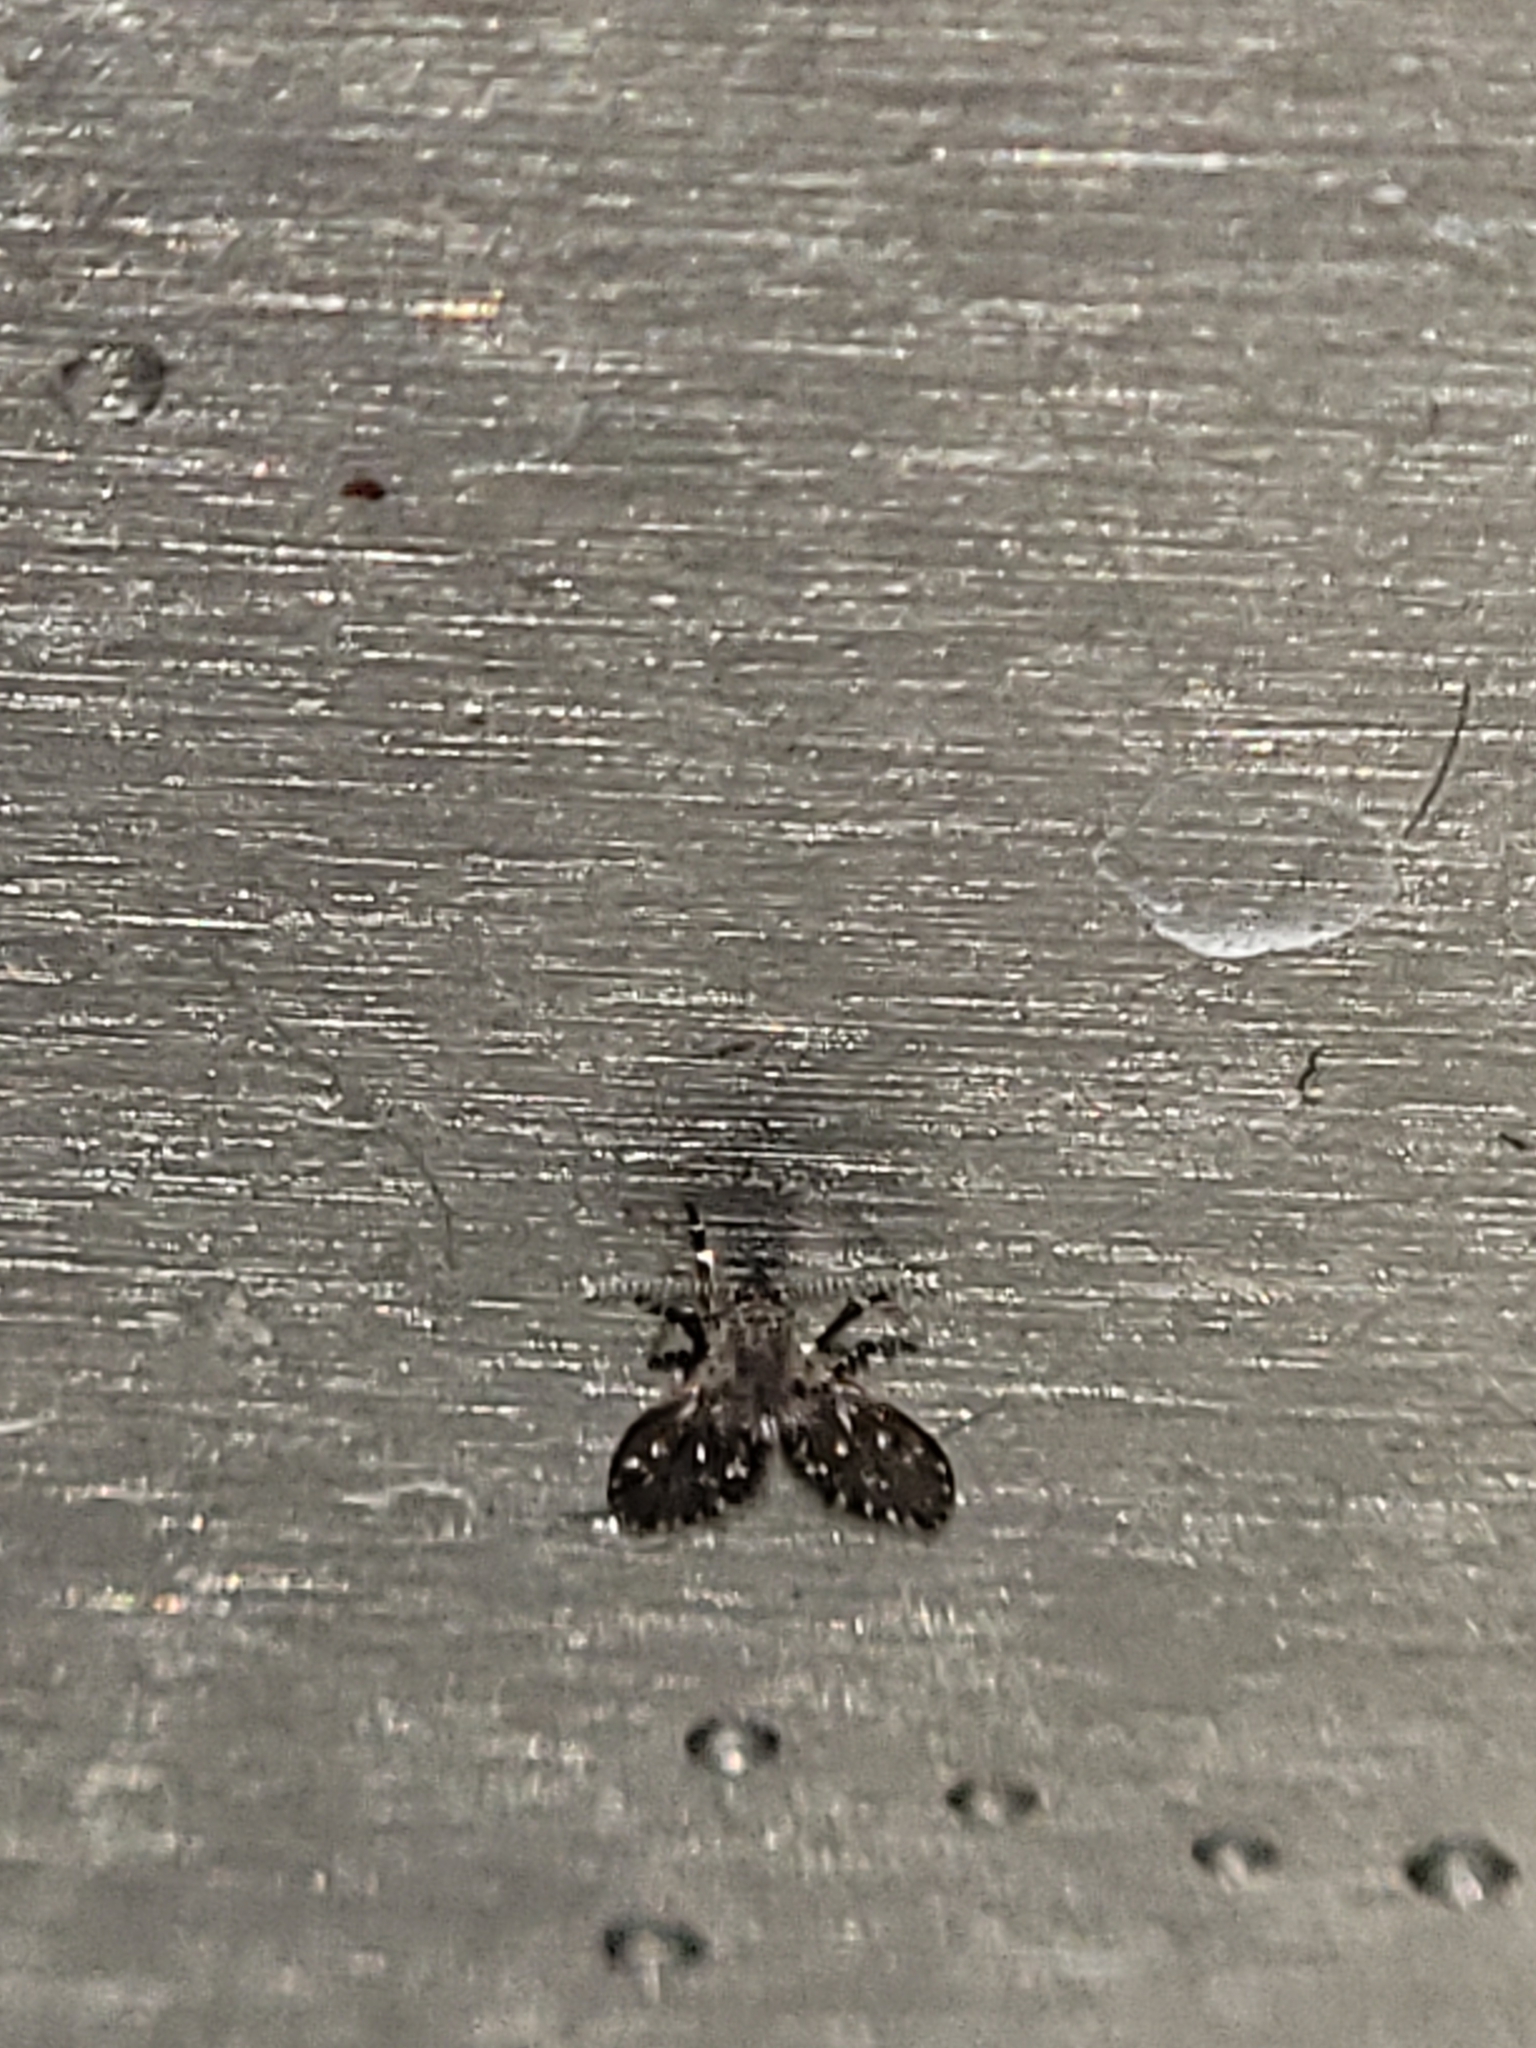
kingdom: Animalia
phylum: Arthropoda
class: Insecta
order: Diptera
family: Psychodidae
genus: Clogmia
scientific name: Clogmia albipunctatus
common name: White-spotted moth fly
